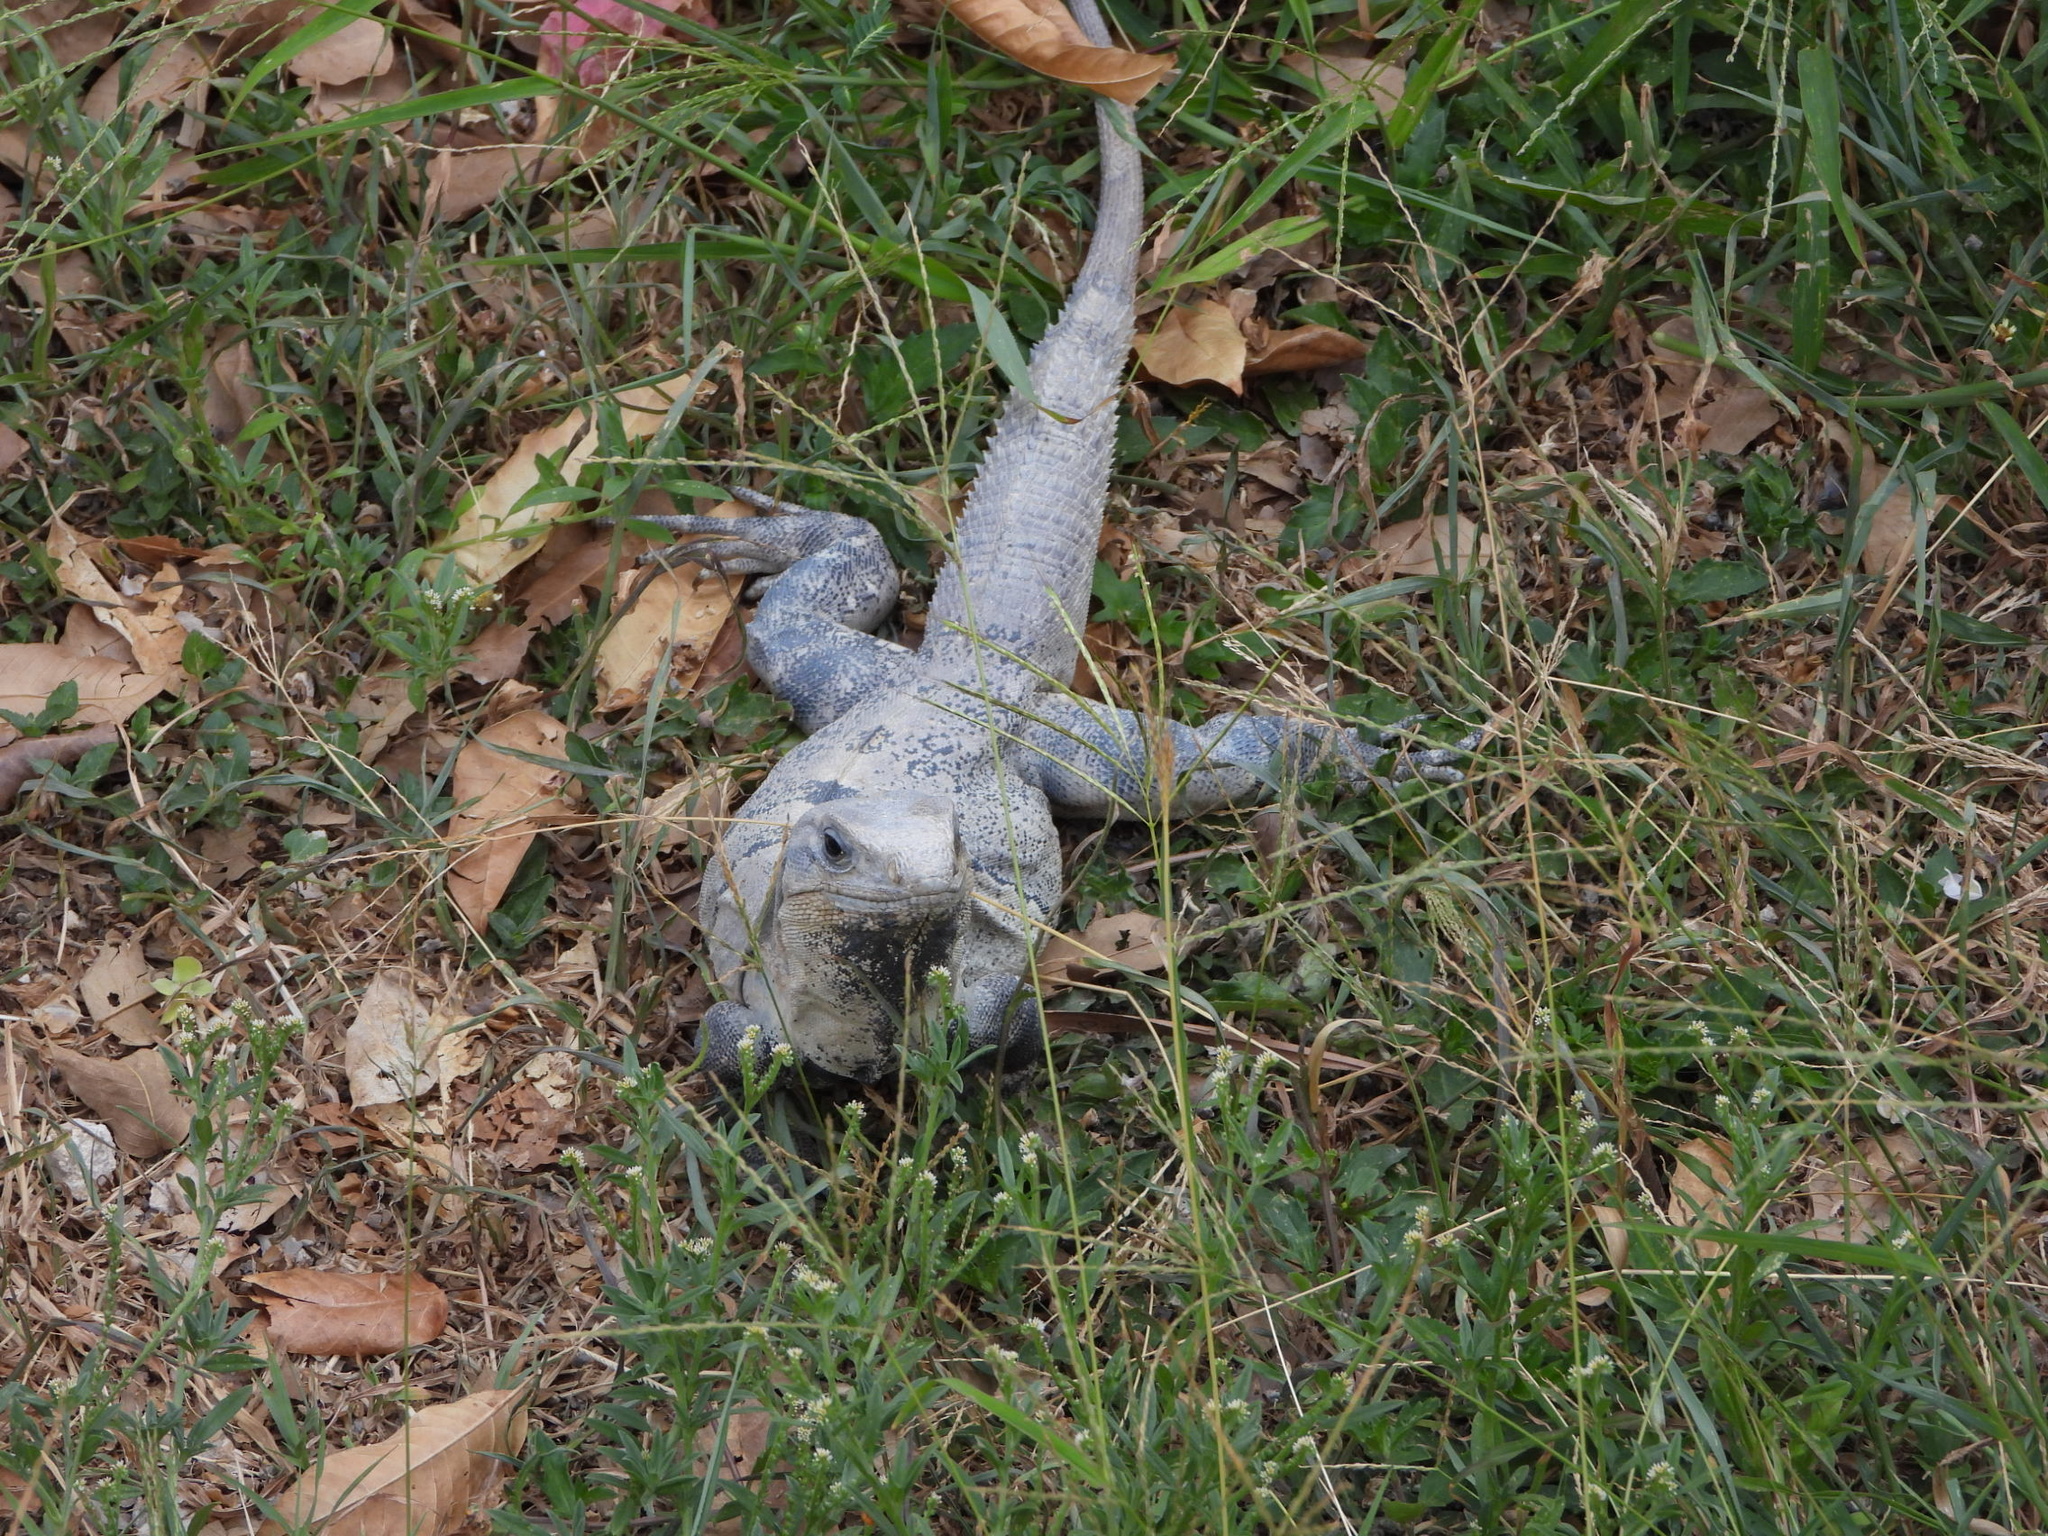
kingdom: Animalia
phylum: Chordata
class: Squamata
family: Iguanidae
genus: Ctenosaura
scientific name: Ctenosaura similis
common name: Black spiny-tailed iguana
